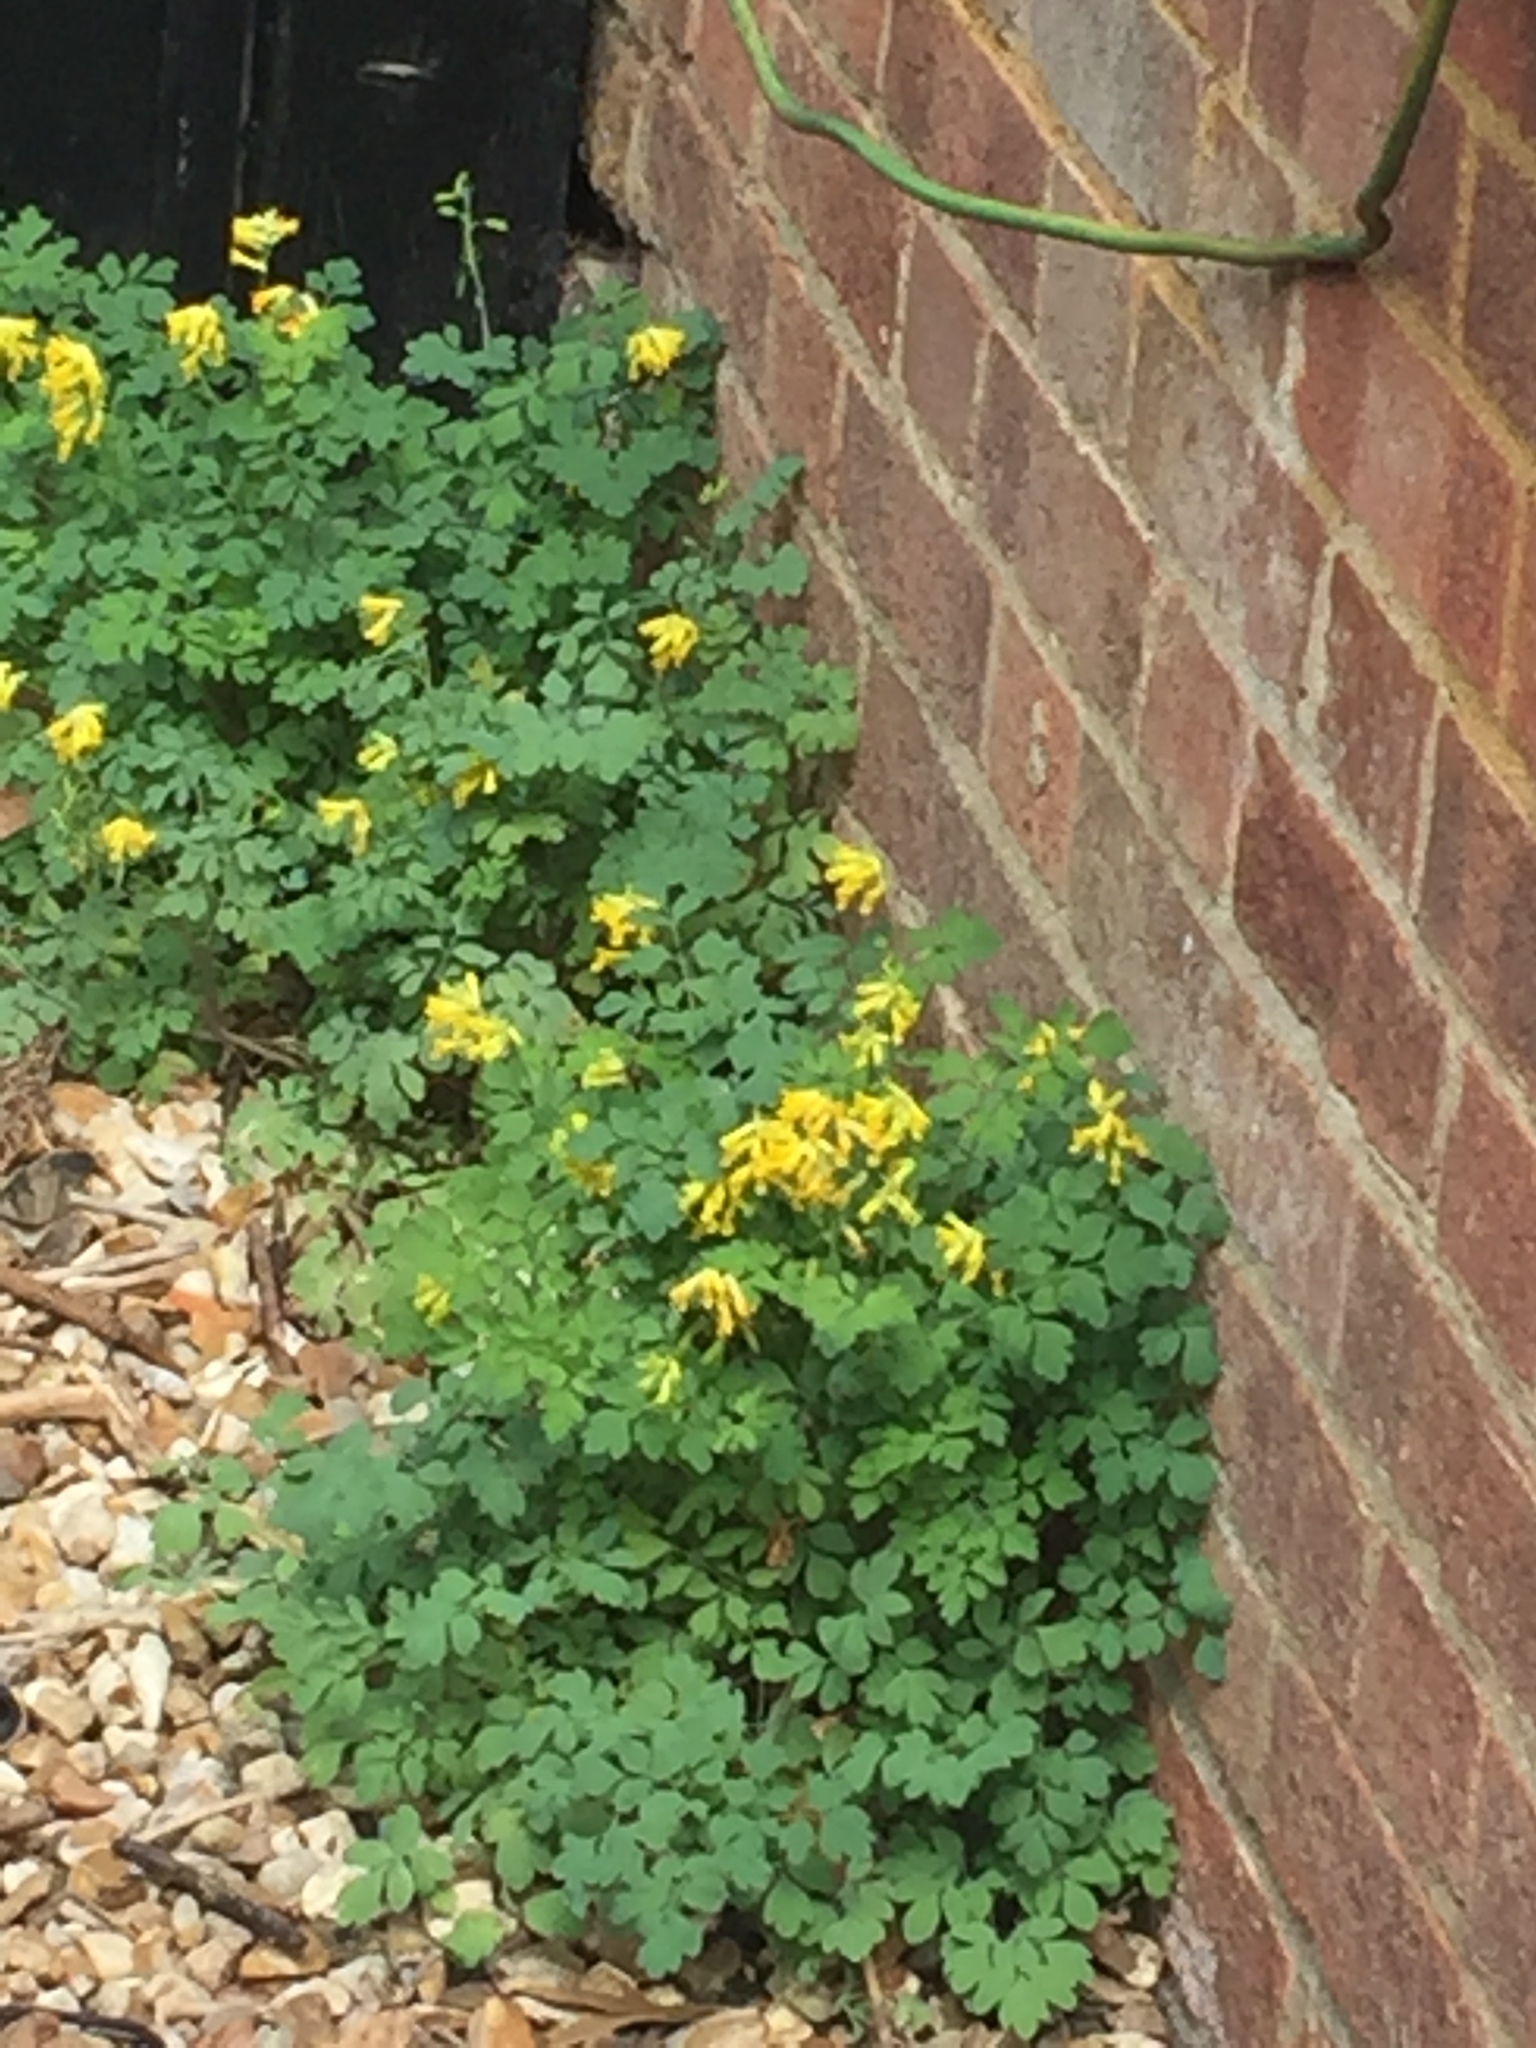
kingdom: Plantae
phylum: Tracheophyta
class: Magnoliopsida
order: Ranunculales
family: Papaveraceae
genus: Pseudofumaria
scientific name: Pseudofumaria lutea
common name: Yellow corydalis
